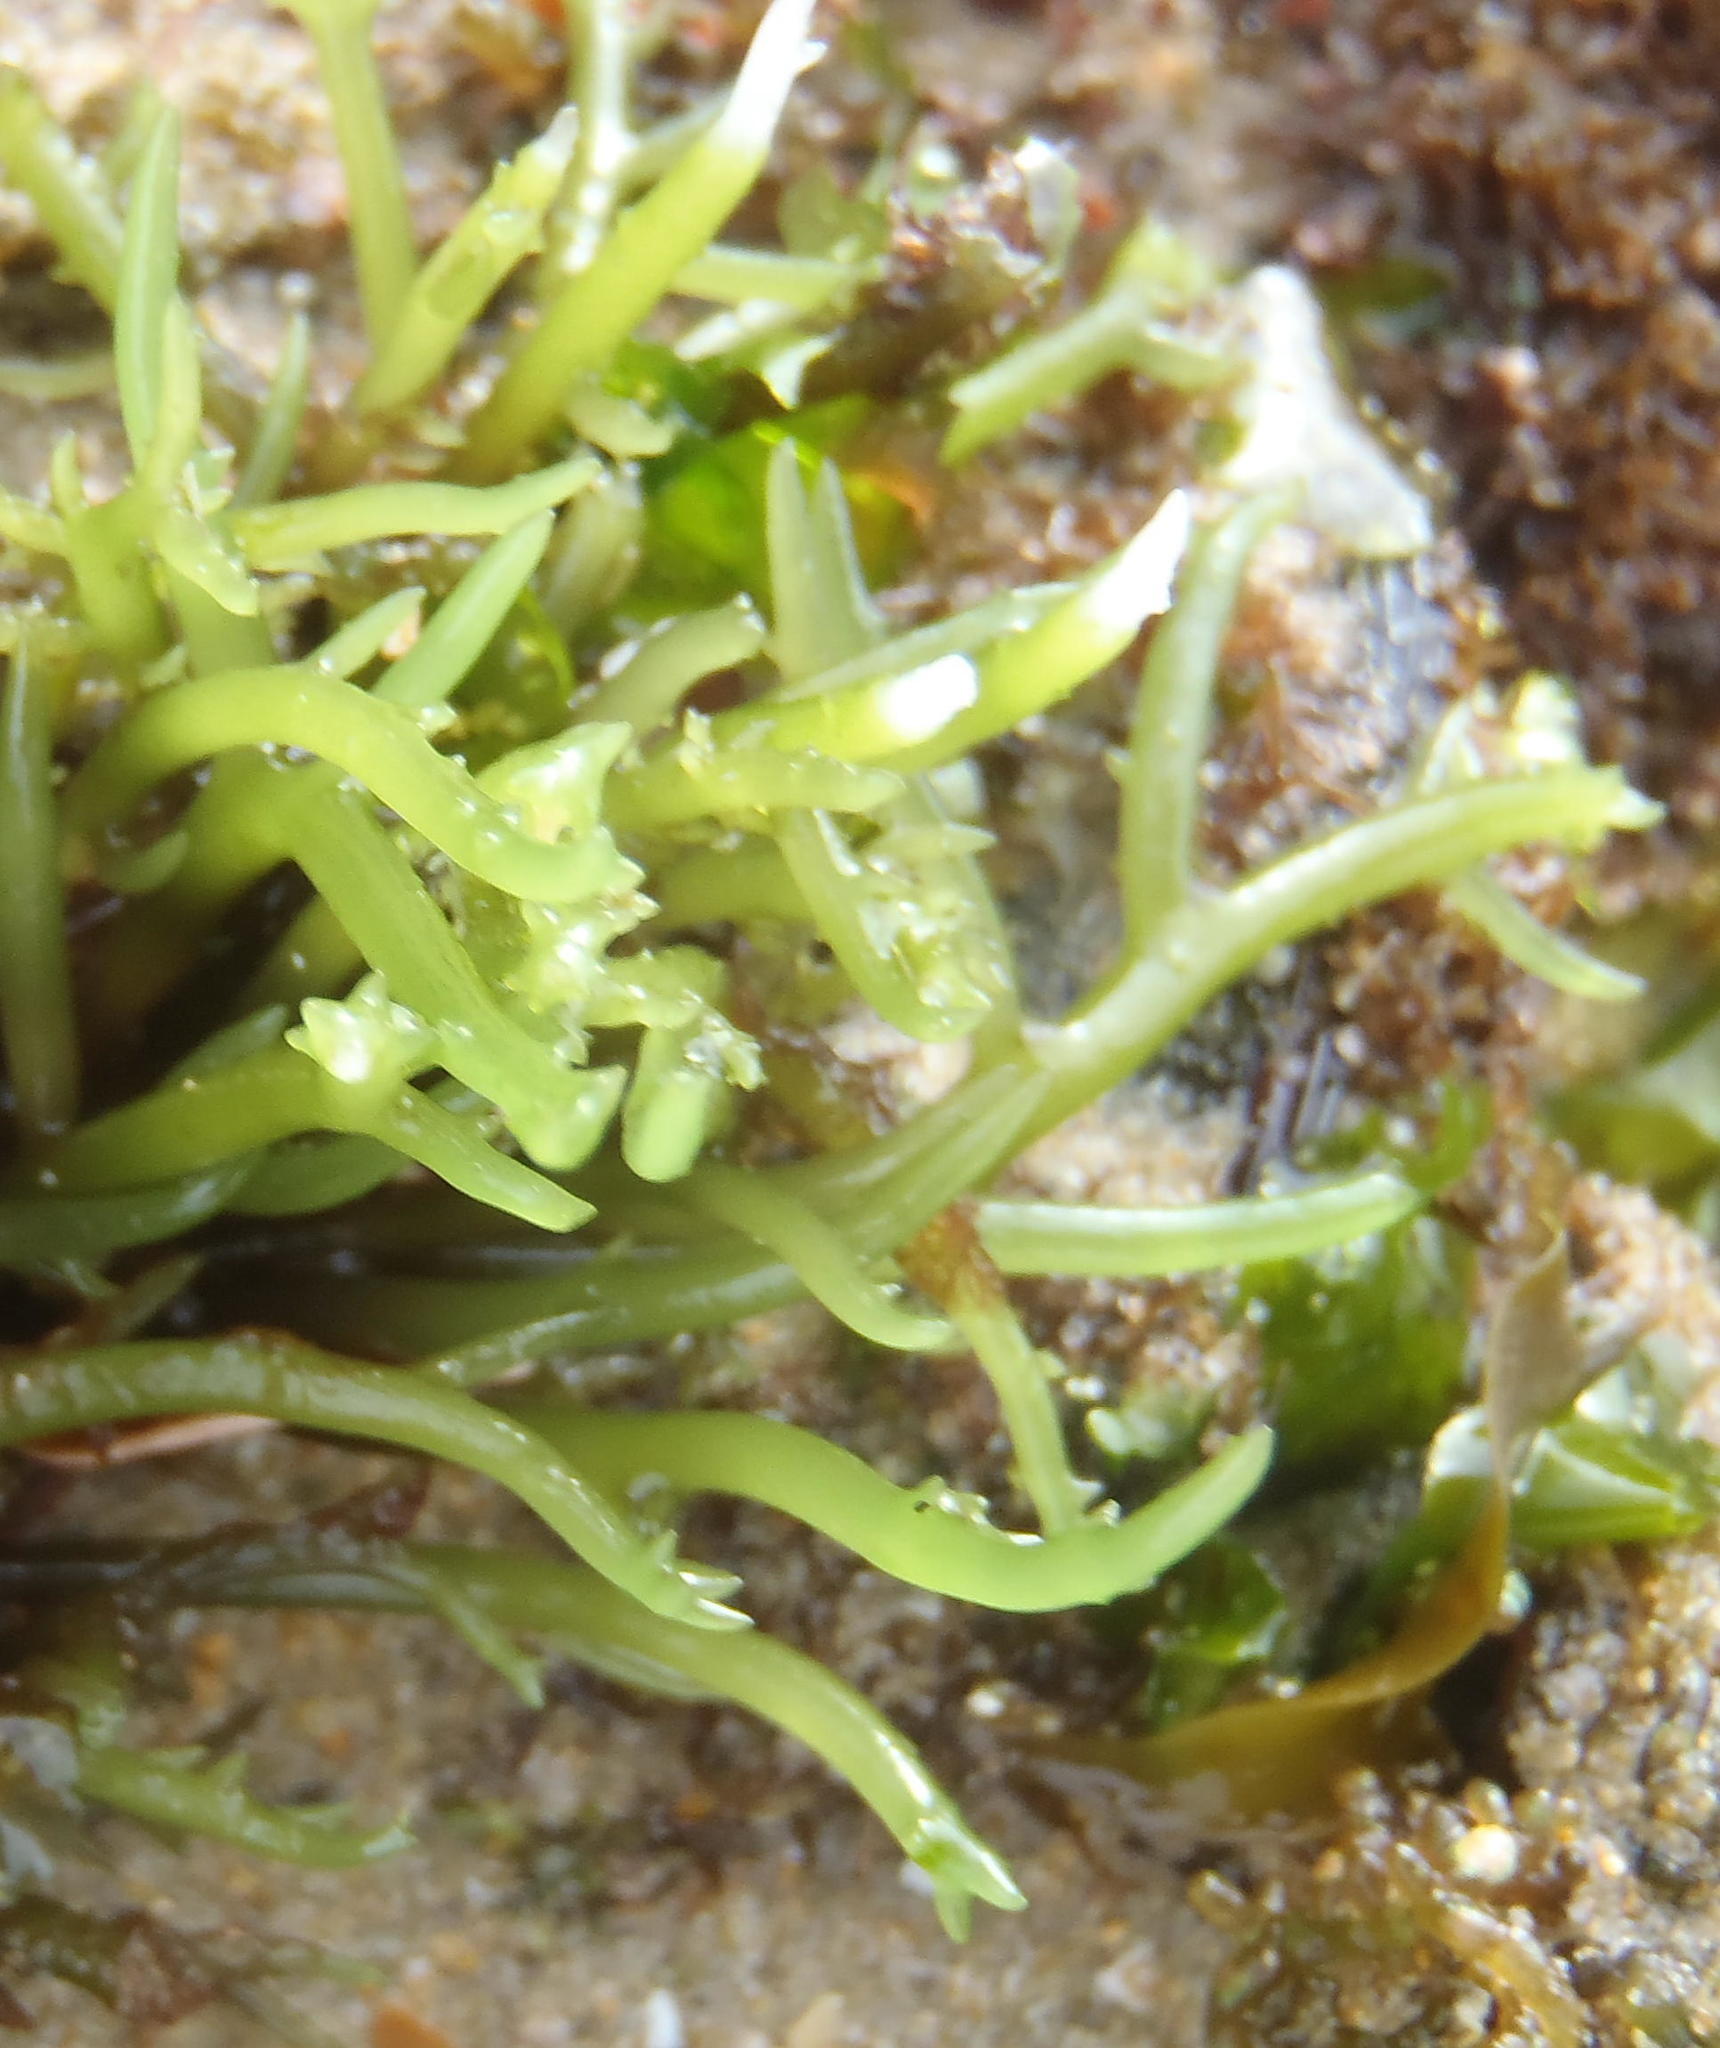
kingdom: Plantae
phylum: Rhodophyta
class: Florideophyceae
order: Gigartinales
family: Cystocloniaceae
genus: Hypnea
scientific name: Hypnea spicifera
